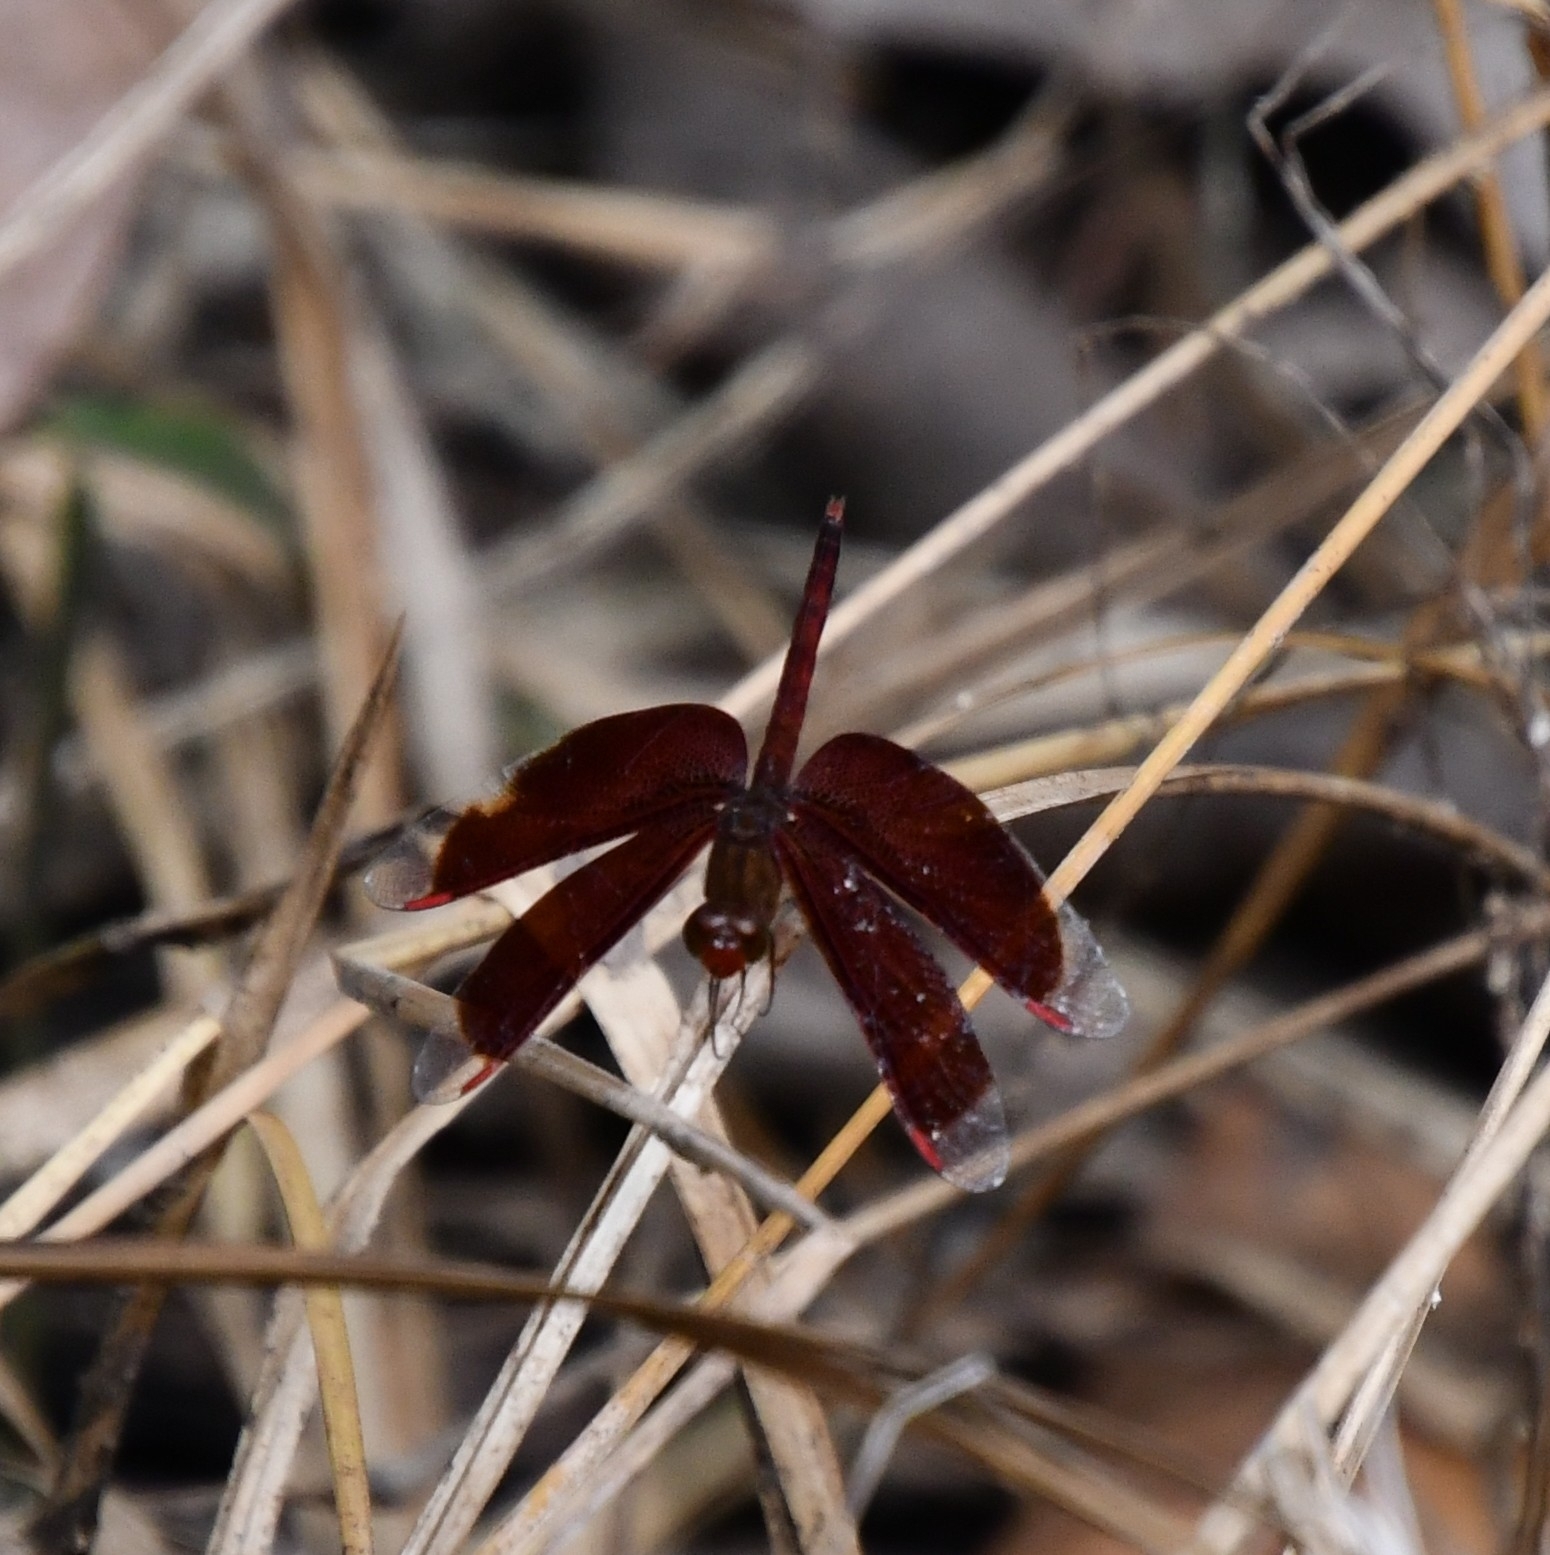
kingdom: Animalia
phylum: Arthropoda
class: Insecta
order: Odonata
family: Libellulidae
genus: Neurothemis
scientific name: Neurothemis fluctuans
